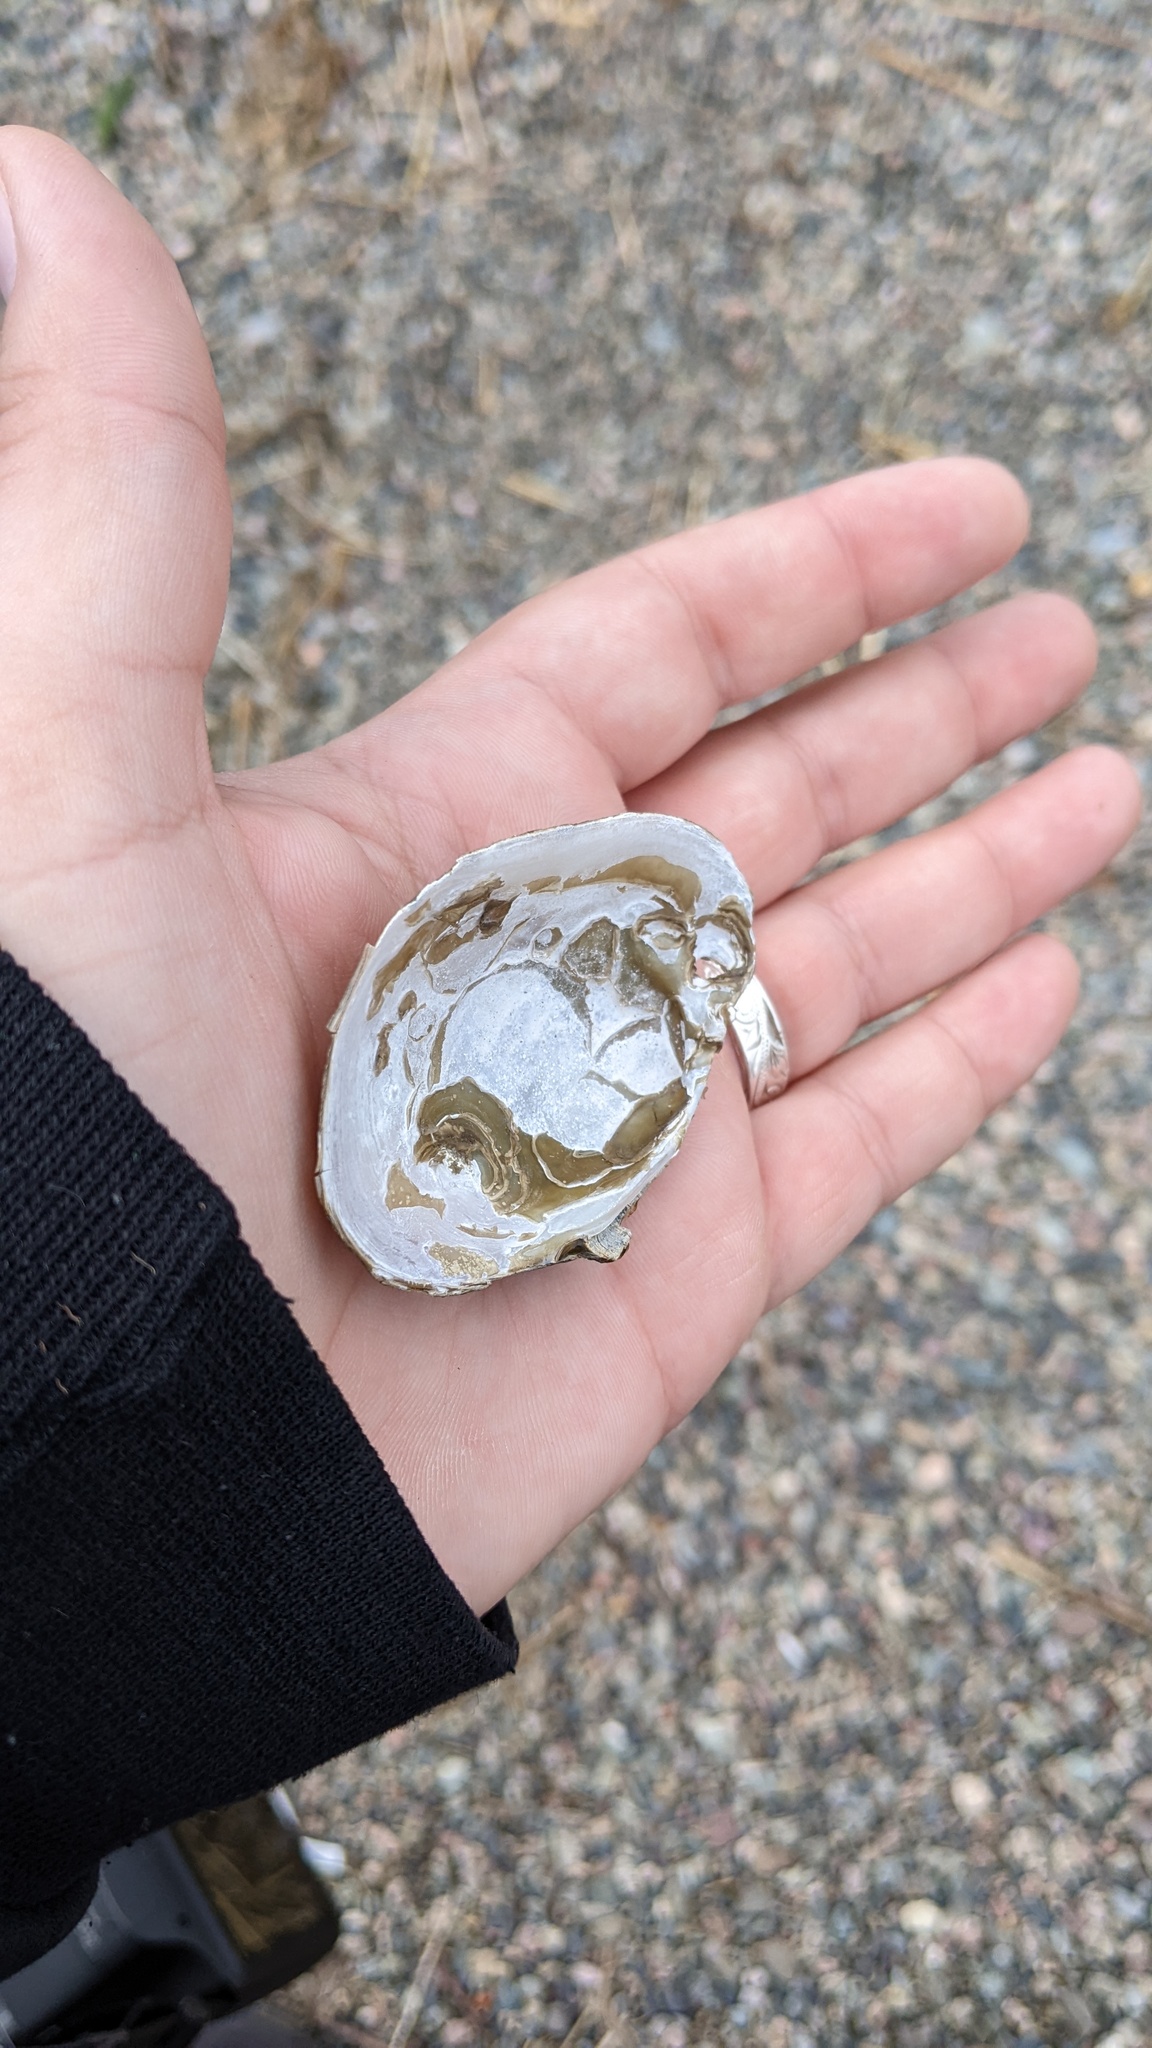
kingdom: Animalia
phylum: Mollusca
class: Bivalvia
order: Unionida
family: Unionidae
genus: Lampsilis
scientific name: Lampsilis cariosa
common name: Yellow lampmussel
